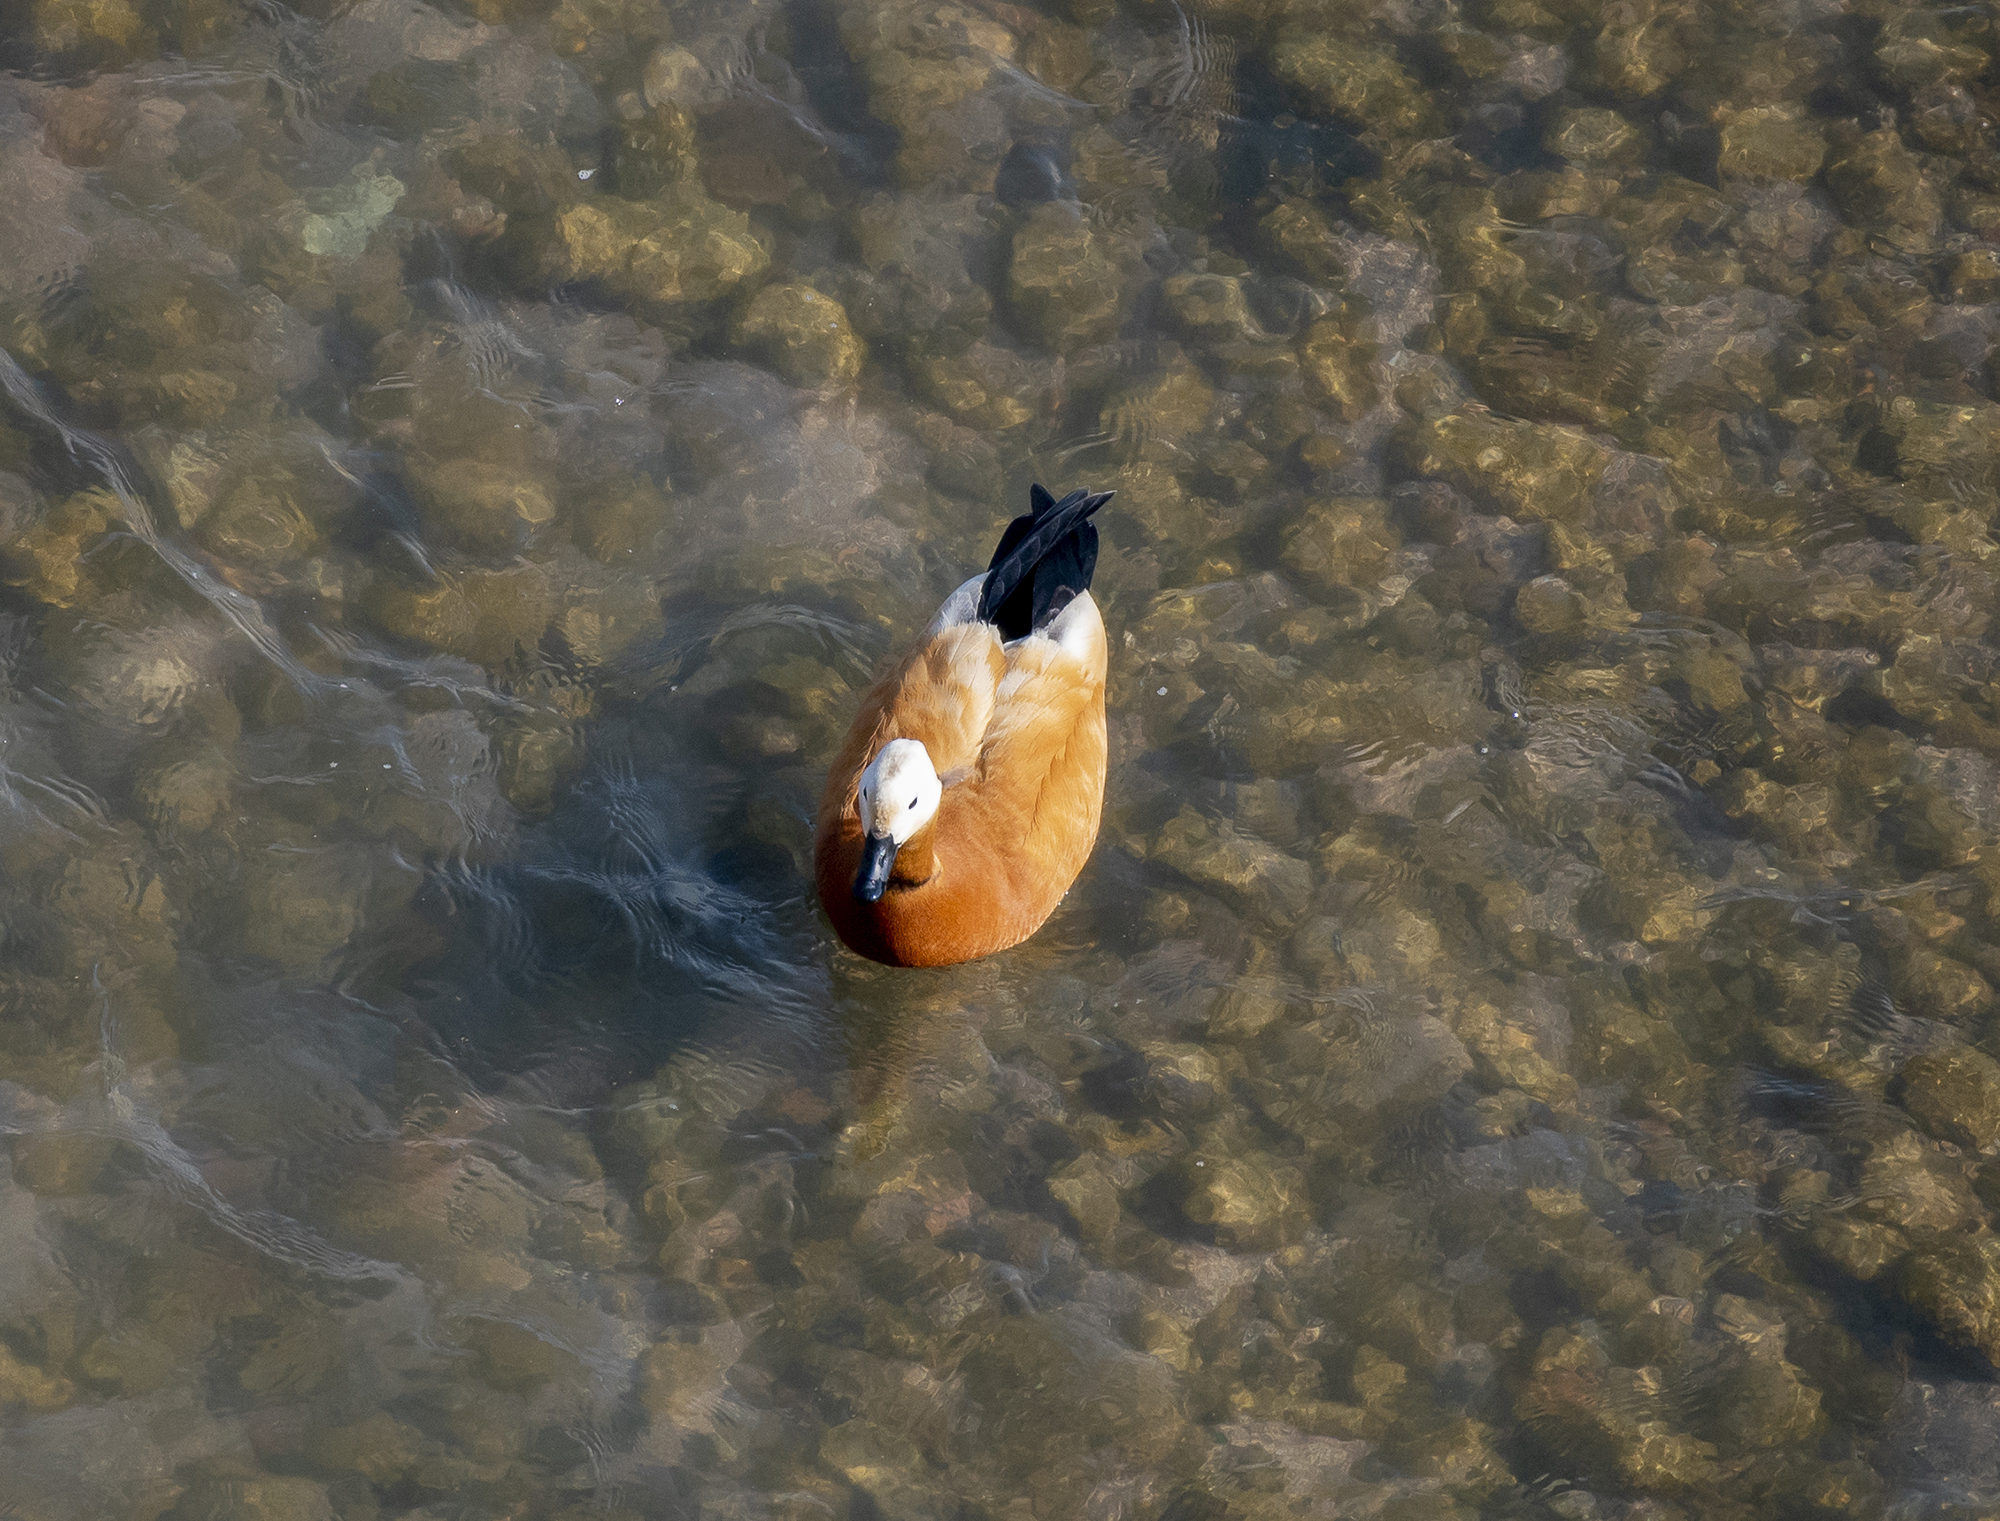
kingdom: Animalia
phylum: Chordata
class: Aves
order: Anseriformes
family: Anatidae
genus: Tadorna
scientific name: Tadorna ferruginea
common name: Ruddy shelduck
